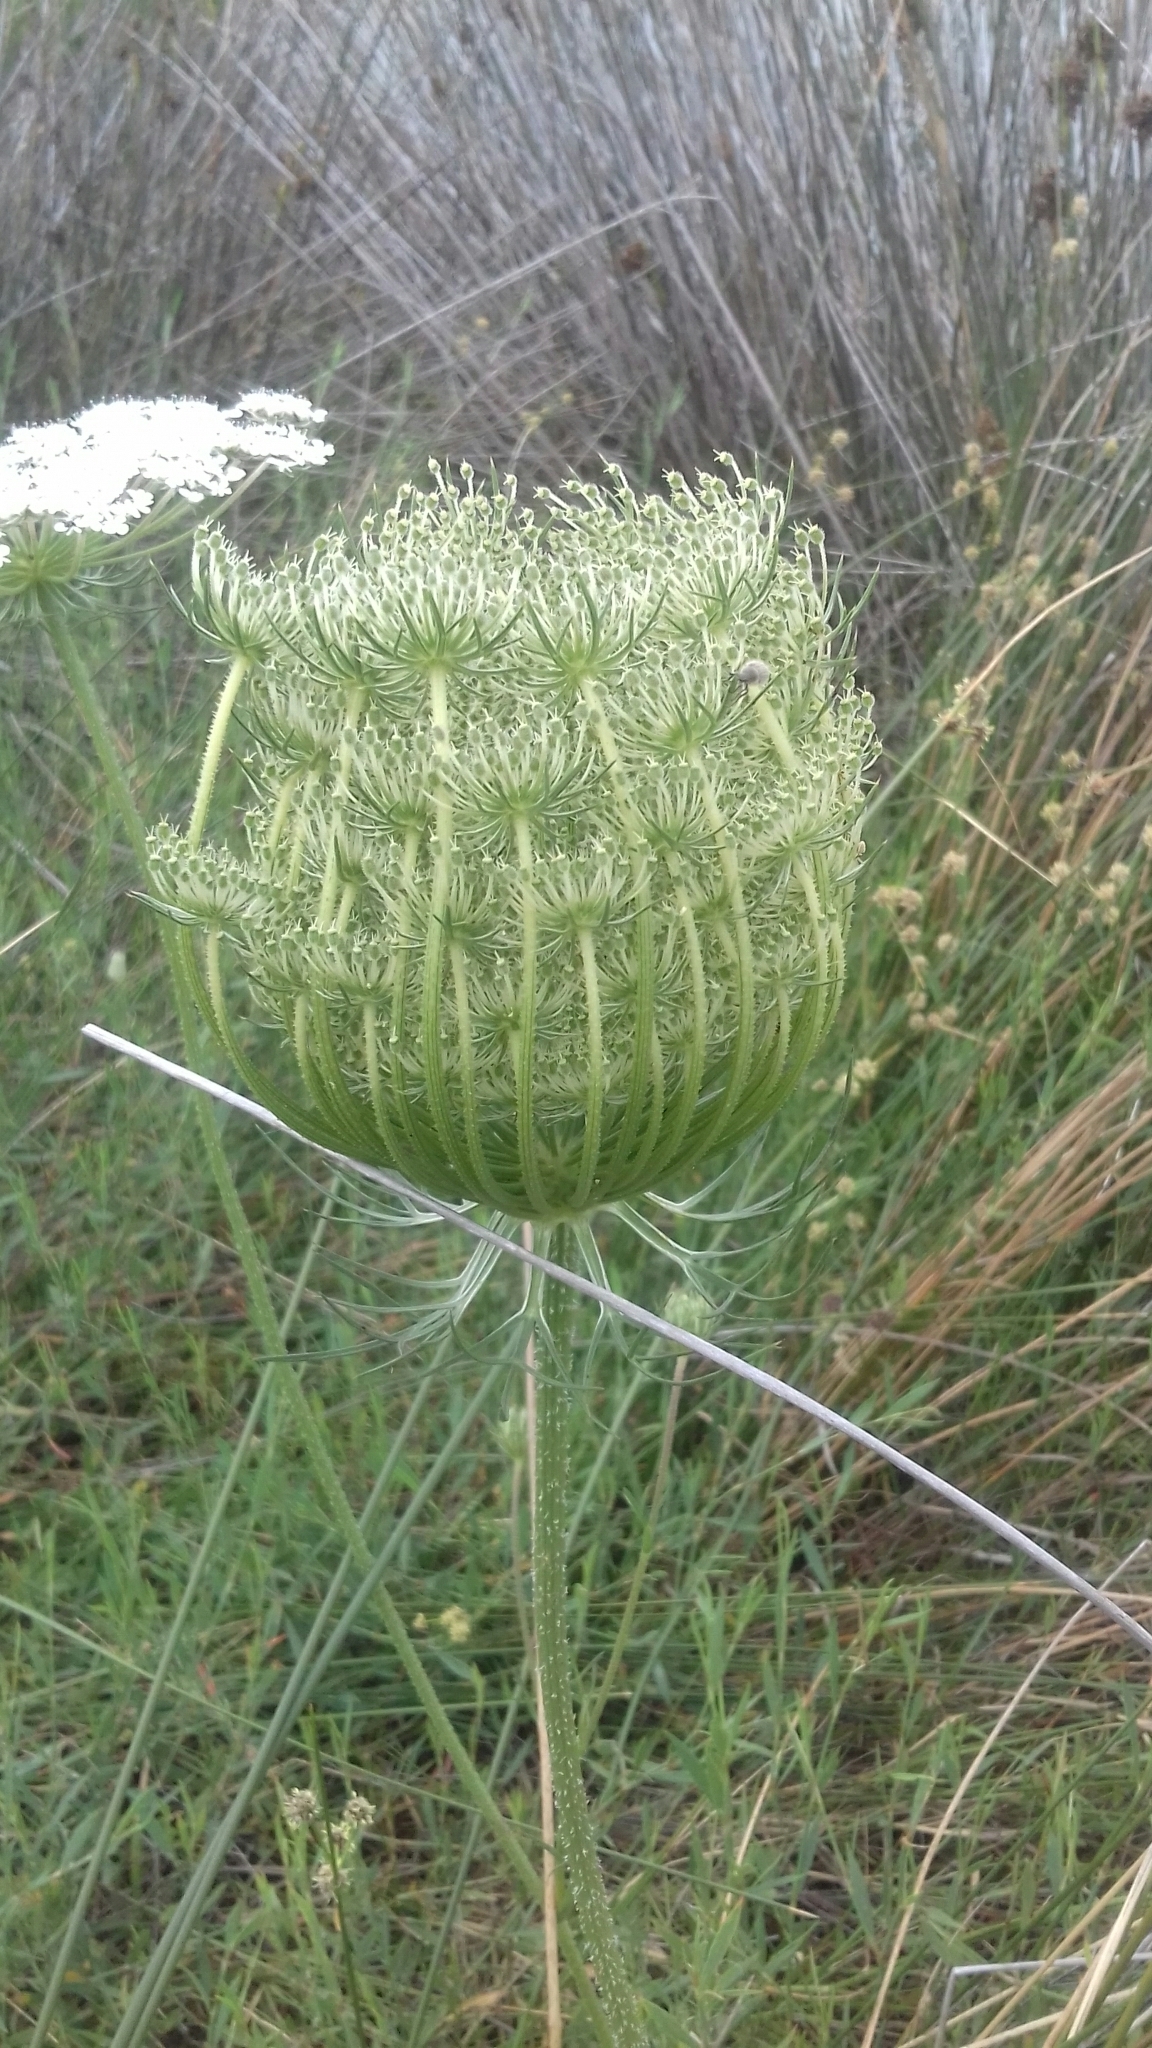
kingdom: Plantae
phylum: Tracheophyta
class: Magnoliopsida
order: Apiales
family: Apiaceae
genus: Daucus
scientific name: Daucus carota
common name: Wild carrot
